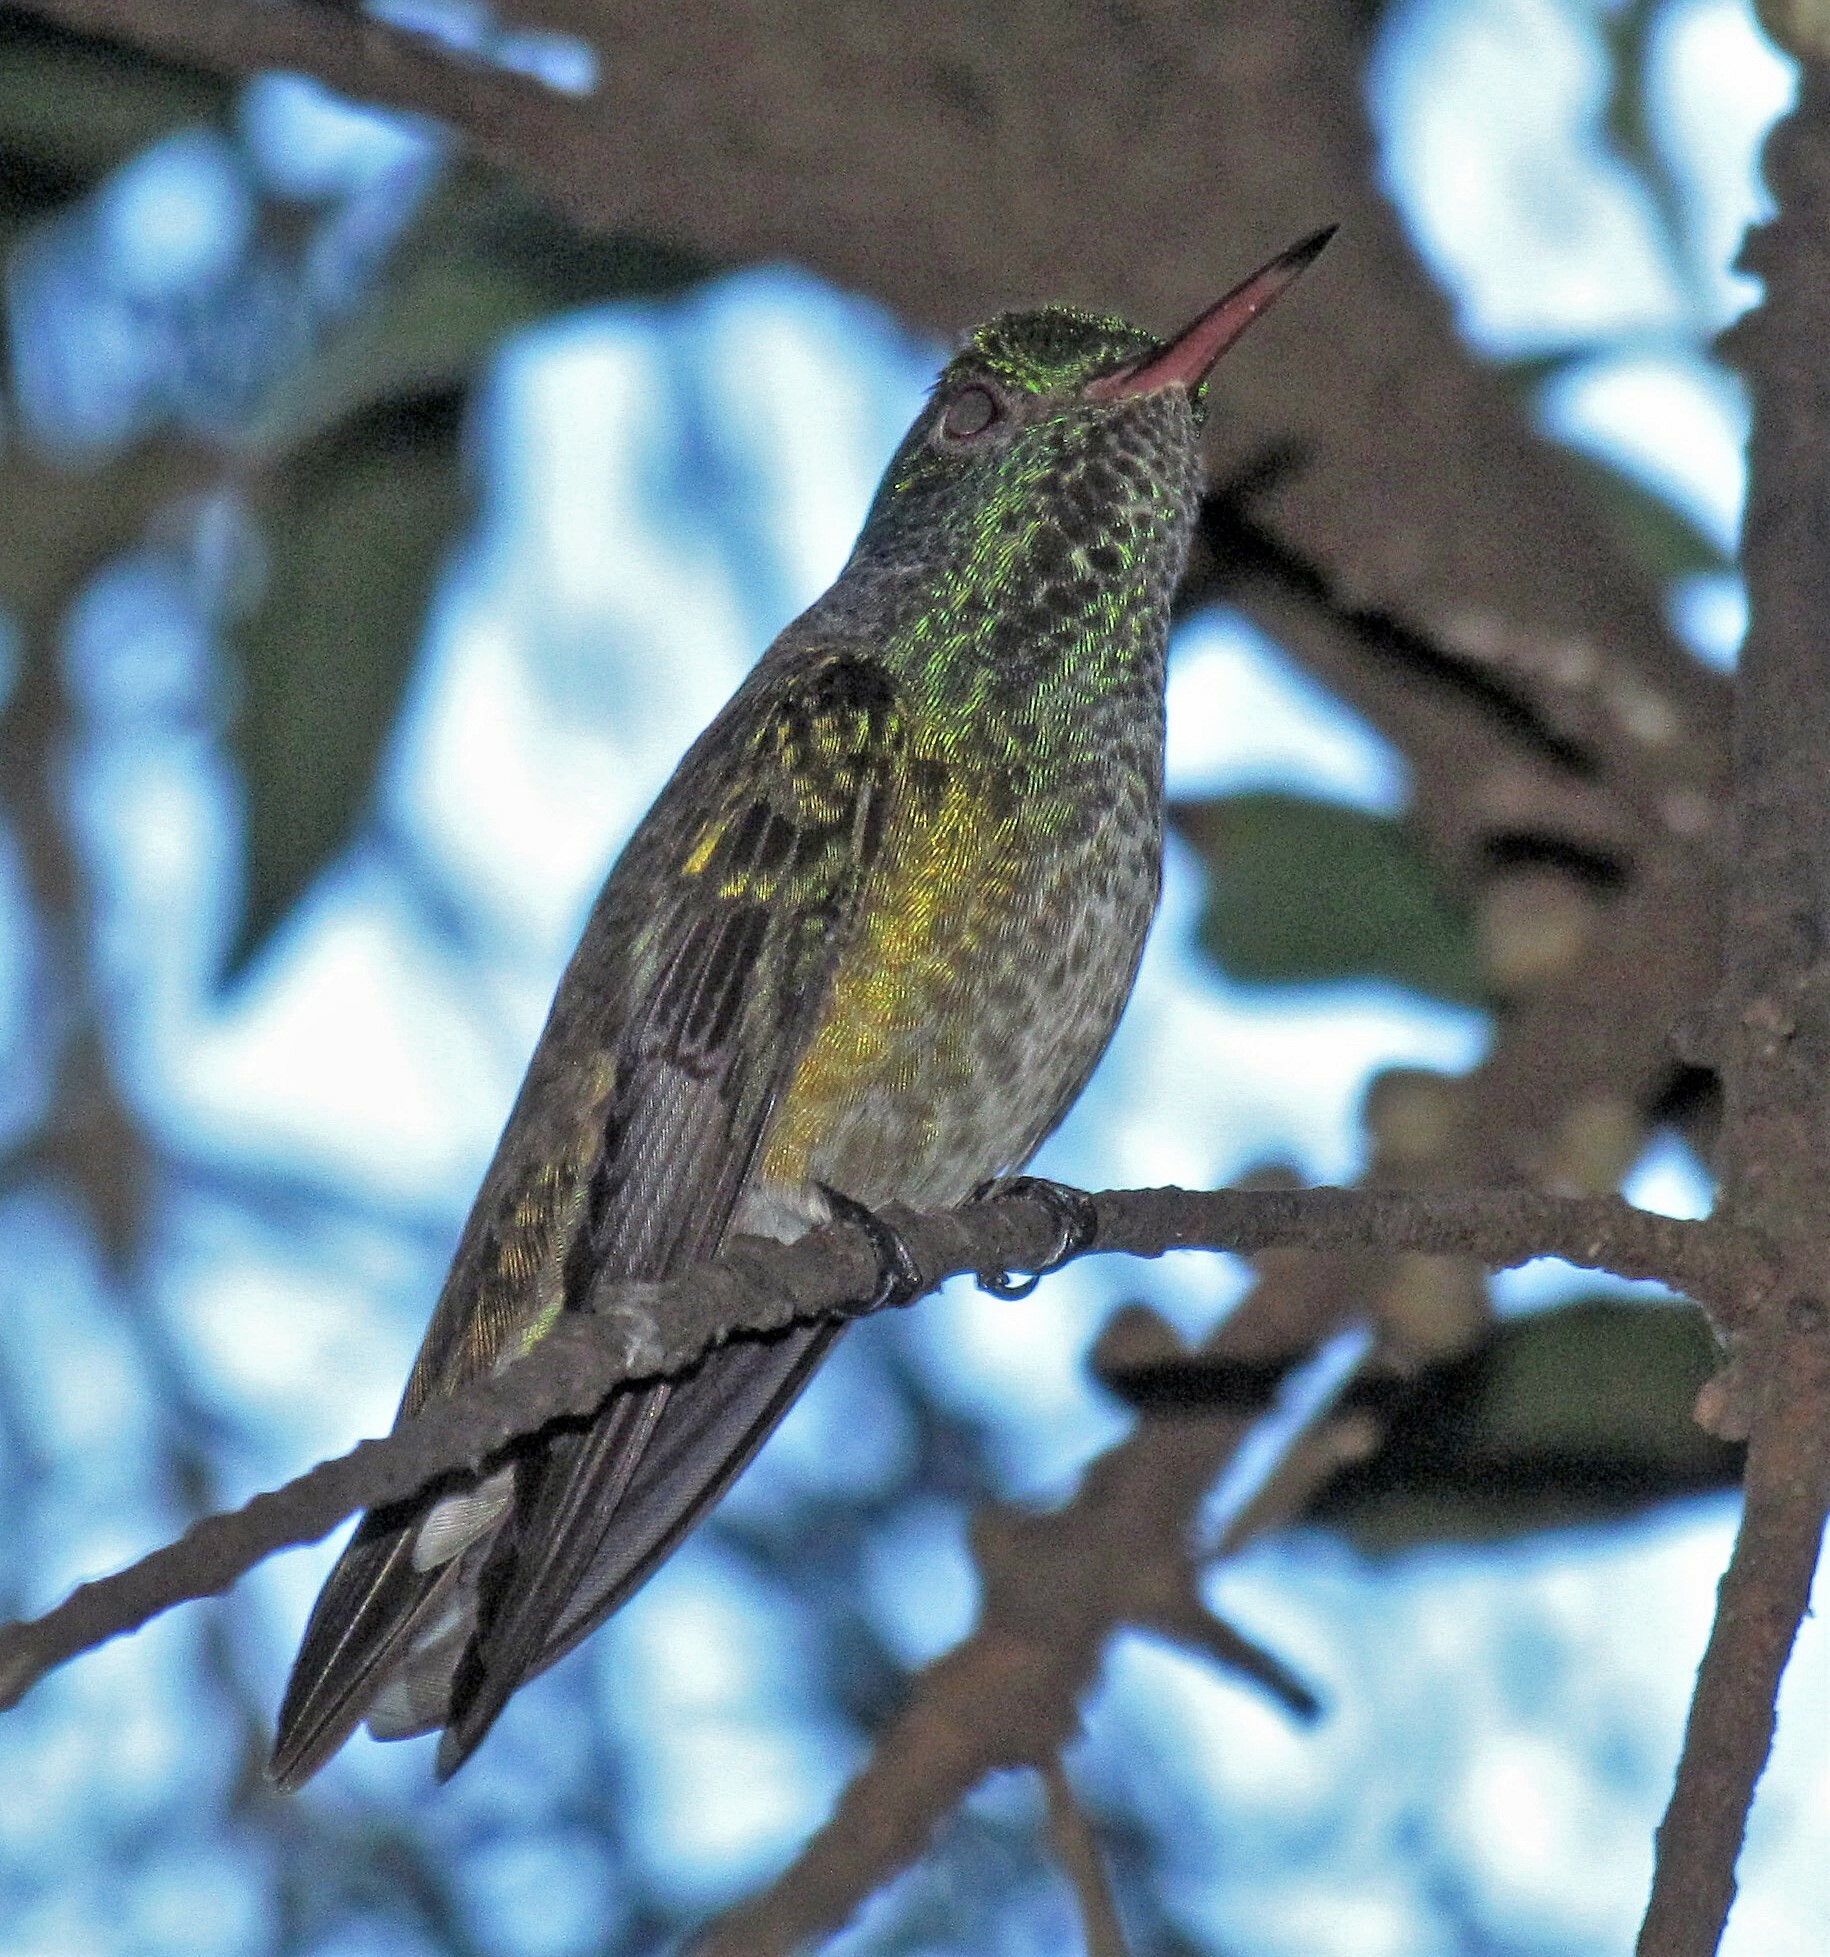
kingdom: Animalia
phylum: Chordata
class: Aves
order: Apodiformes
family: Trochilidae
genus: Chrysuronia
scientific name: Chrysuronia versicolor
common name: Versicolored emerald
